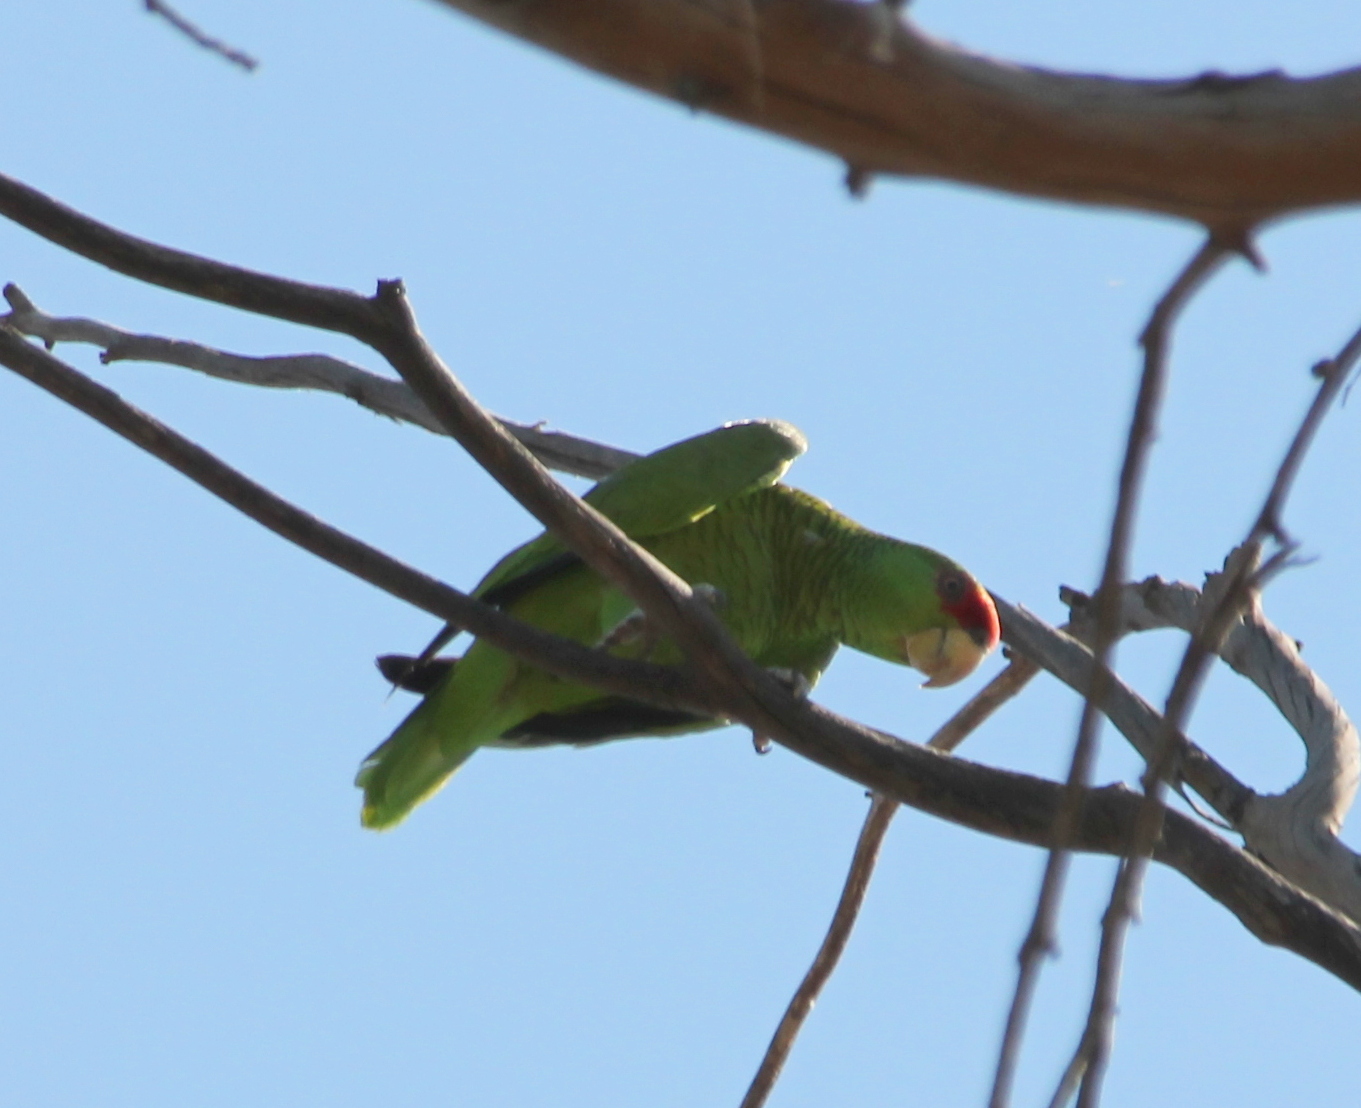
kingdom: Animalia
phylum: Chordata
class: Aves
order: Psittaciformes
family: Psittacidae
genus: Amazona
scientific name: Amazona
